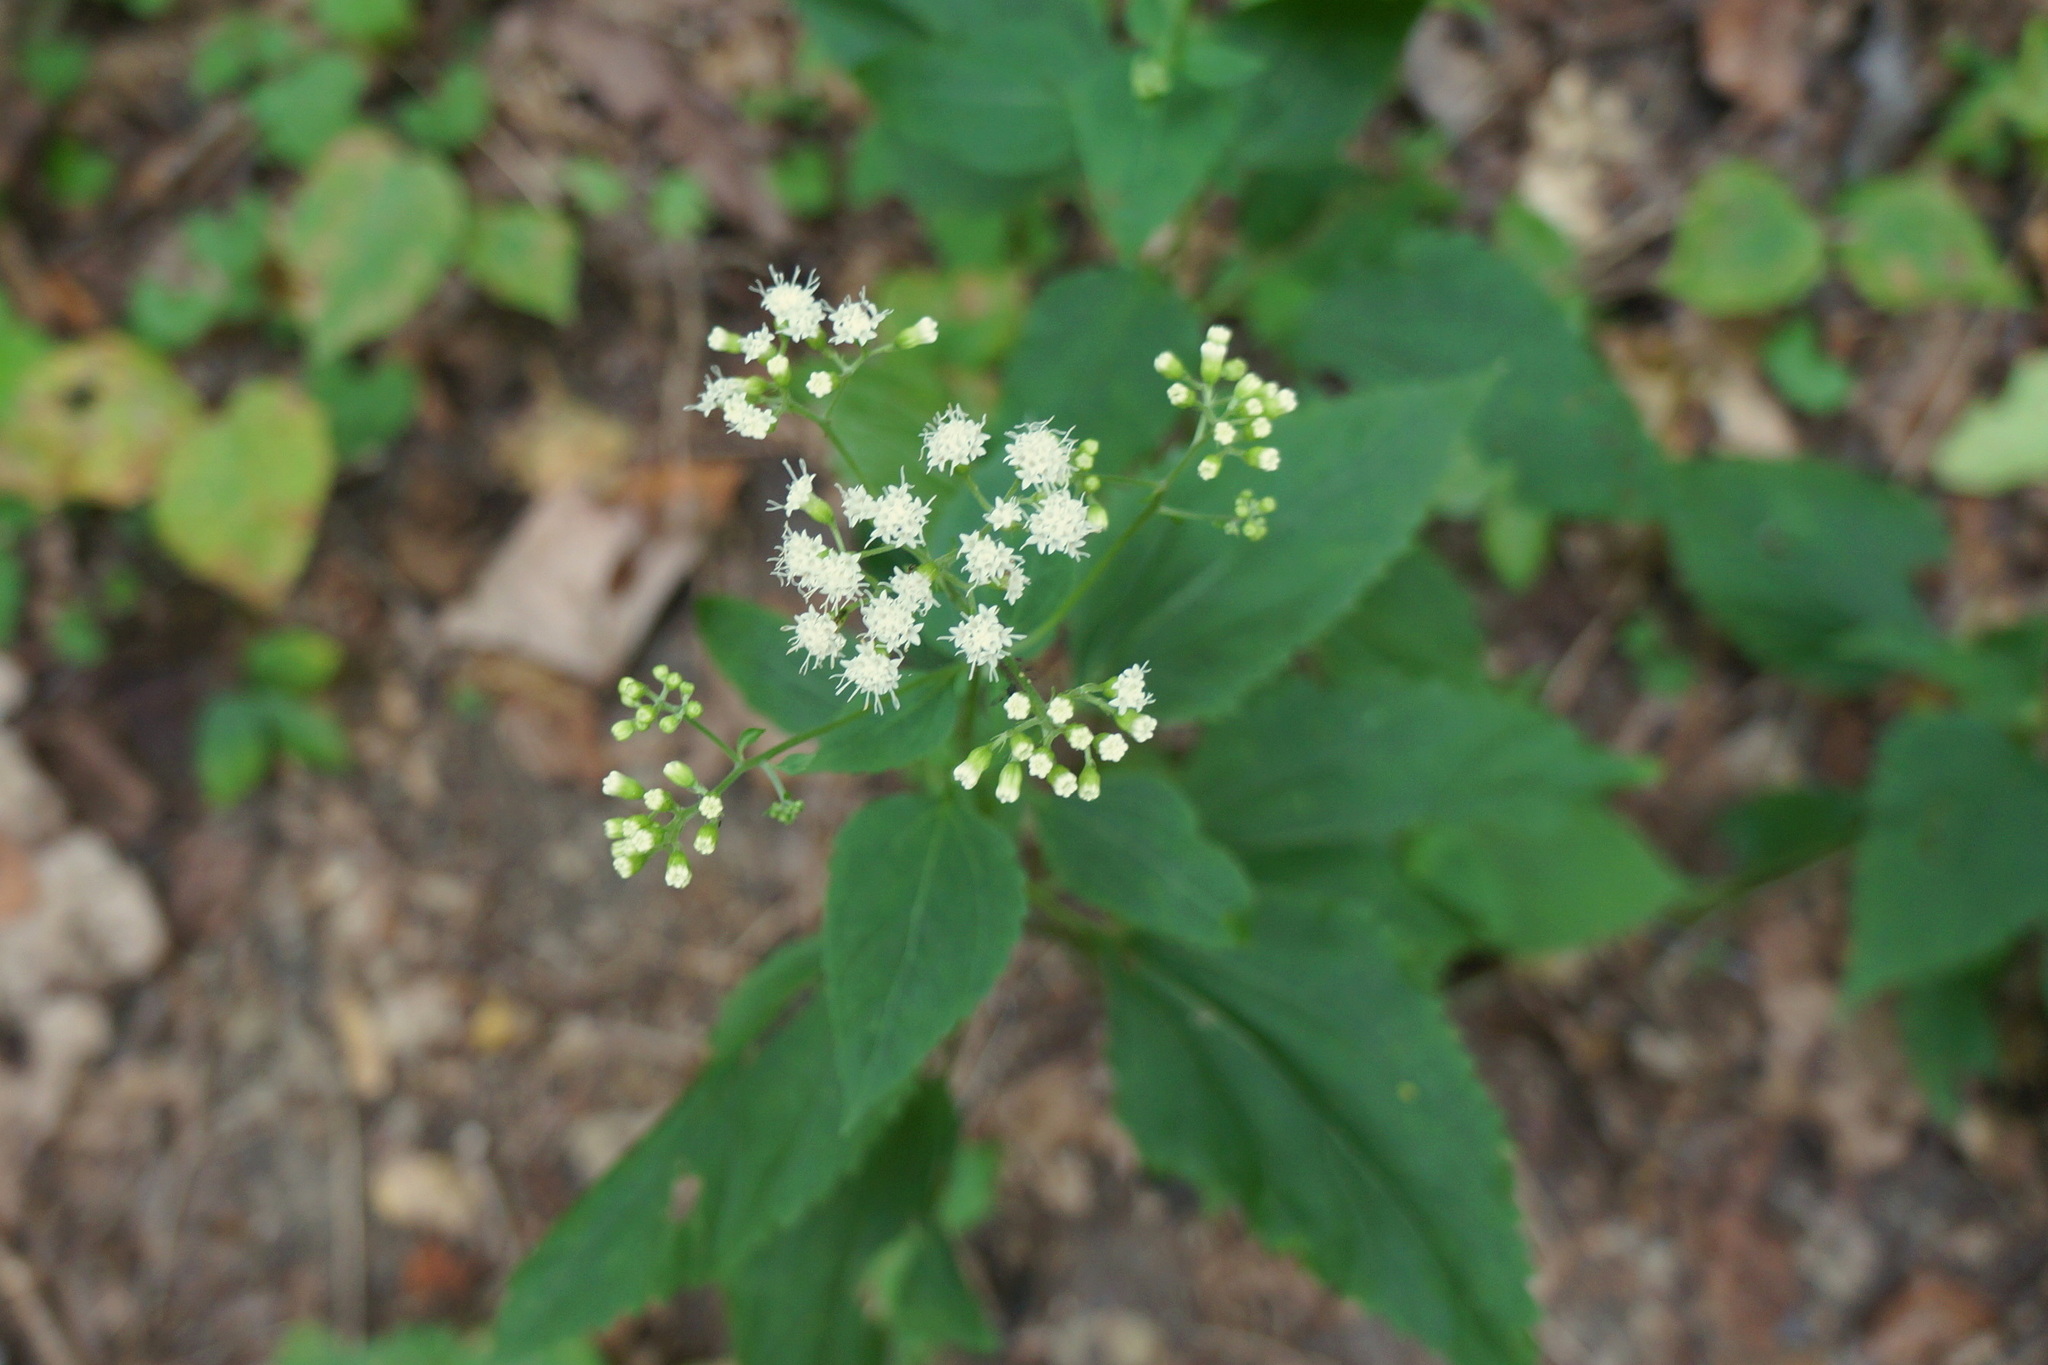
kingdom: Plantae
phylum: Tracheophyta
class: Magnoliopsida
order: Asterales
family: Asteraceae
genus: Ageratina
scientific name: Ageratina altissima
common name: White snakeroot
